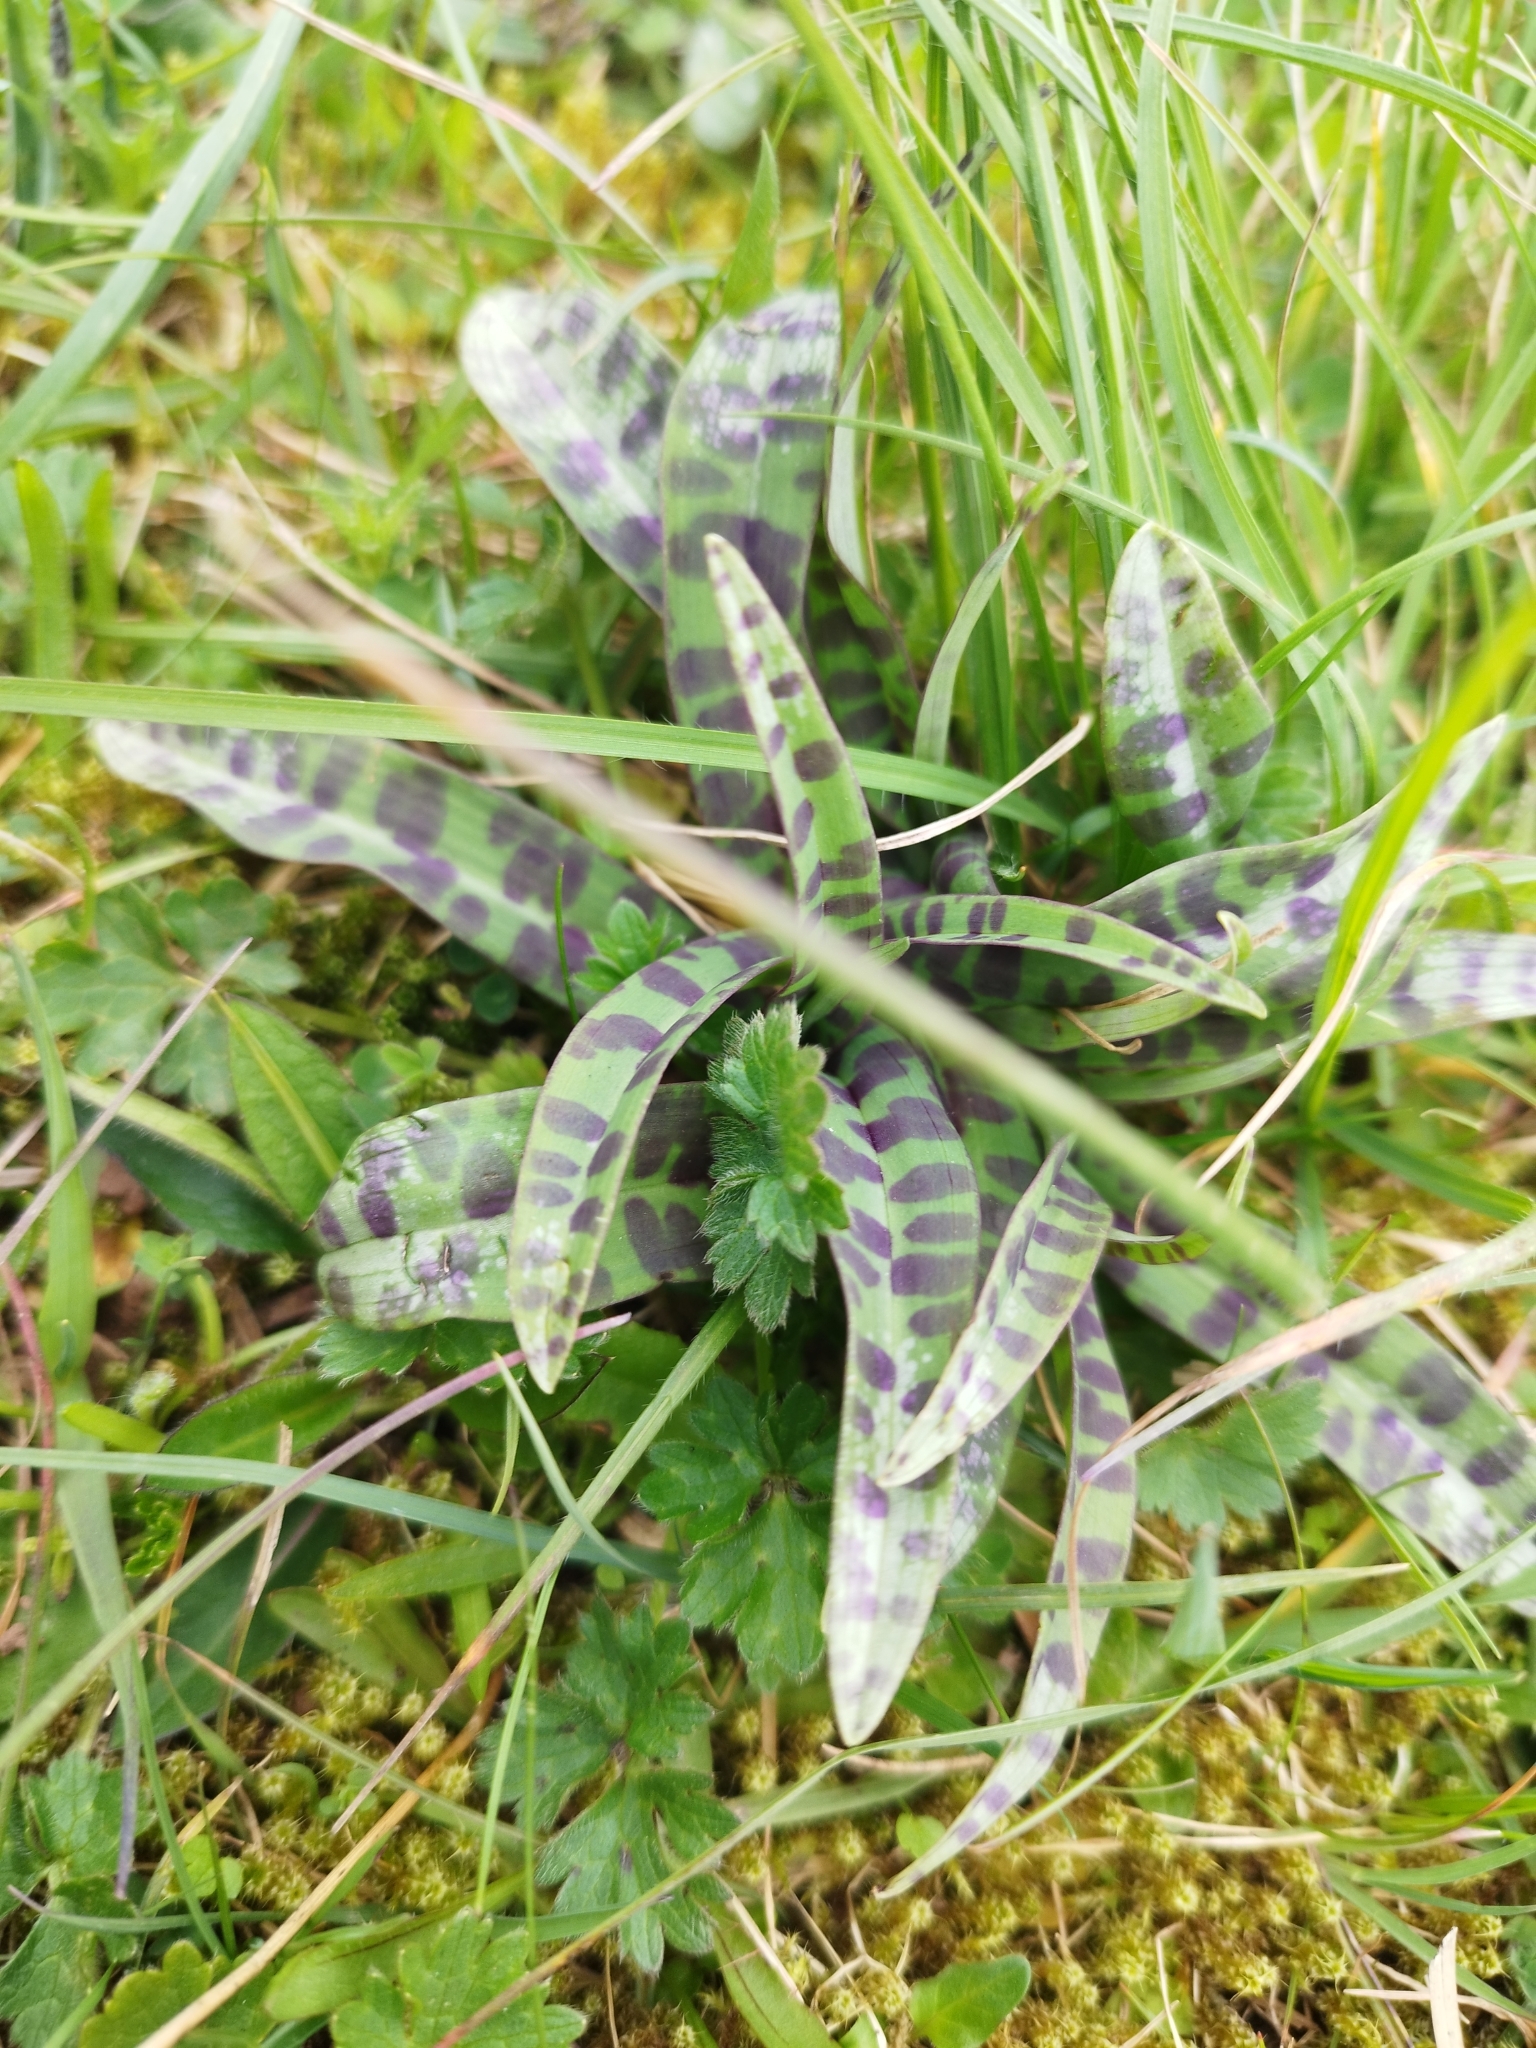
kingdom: Plantae
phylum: Tracheophyta
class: Liliopsida
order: Asparagales
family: Orchidaceae
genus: Dactylorhiza
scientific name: Dactylorhiza maculata
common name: Heath spotted-orchid
